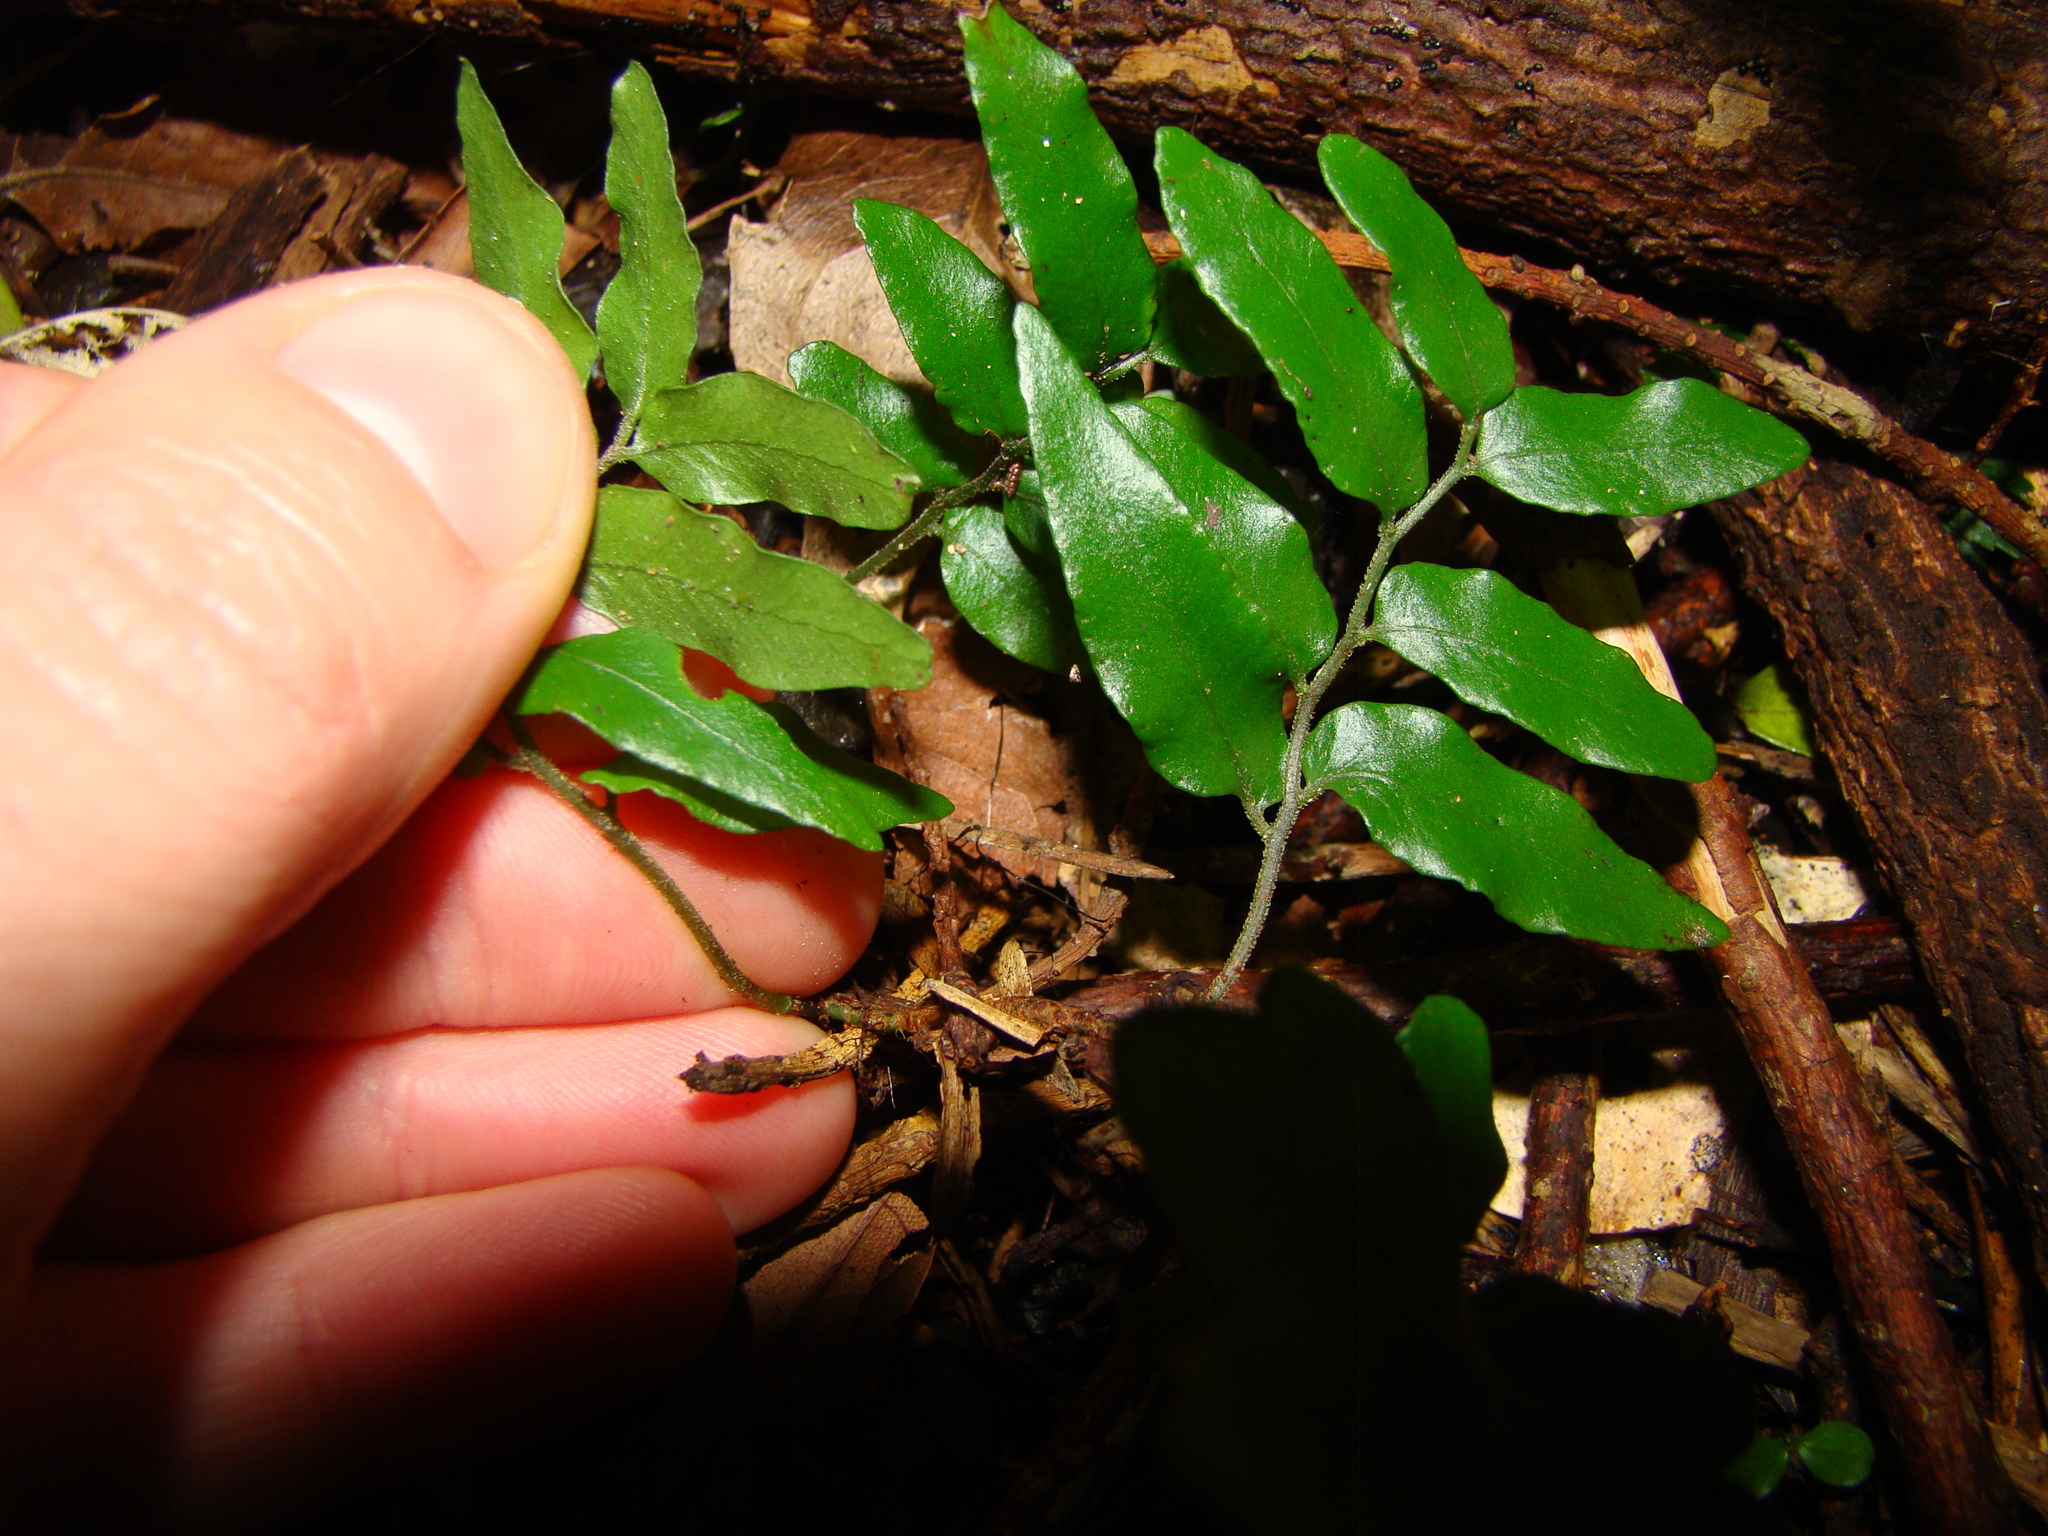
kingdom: Plantae
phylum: Tracheophyta
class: Polypodiopsida
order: Polypodiales
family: Tectariaceae
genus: Arthropteris
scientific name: Arthropteris tenella
